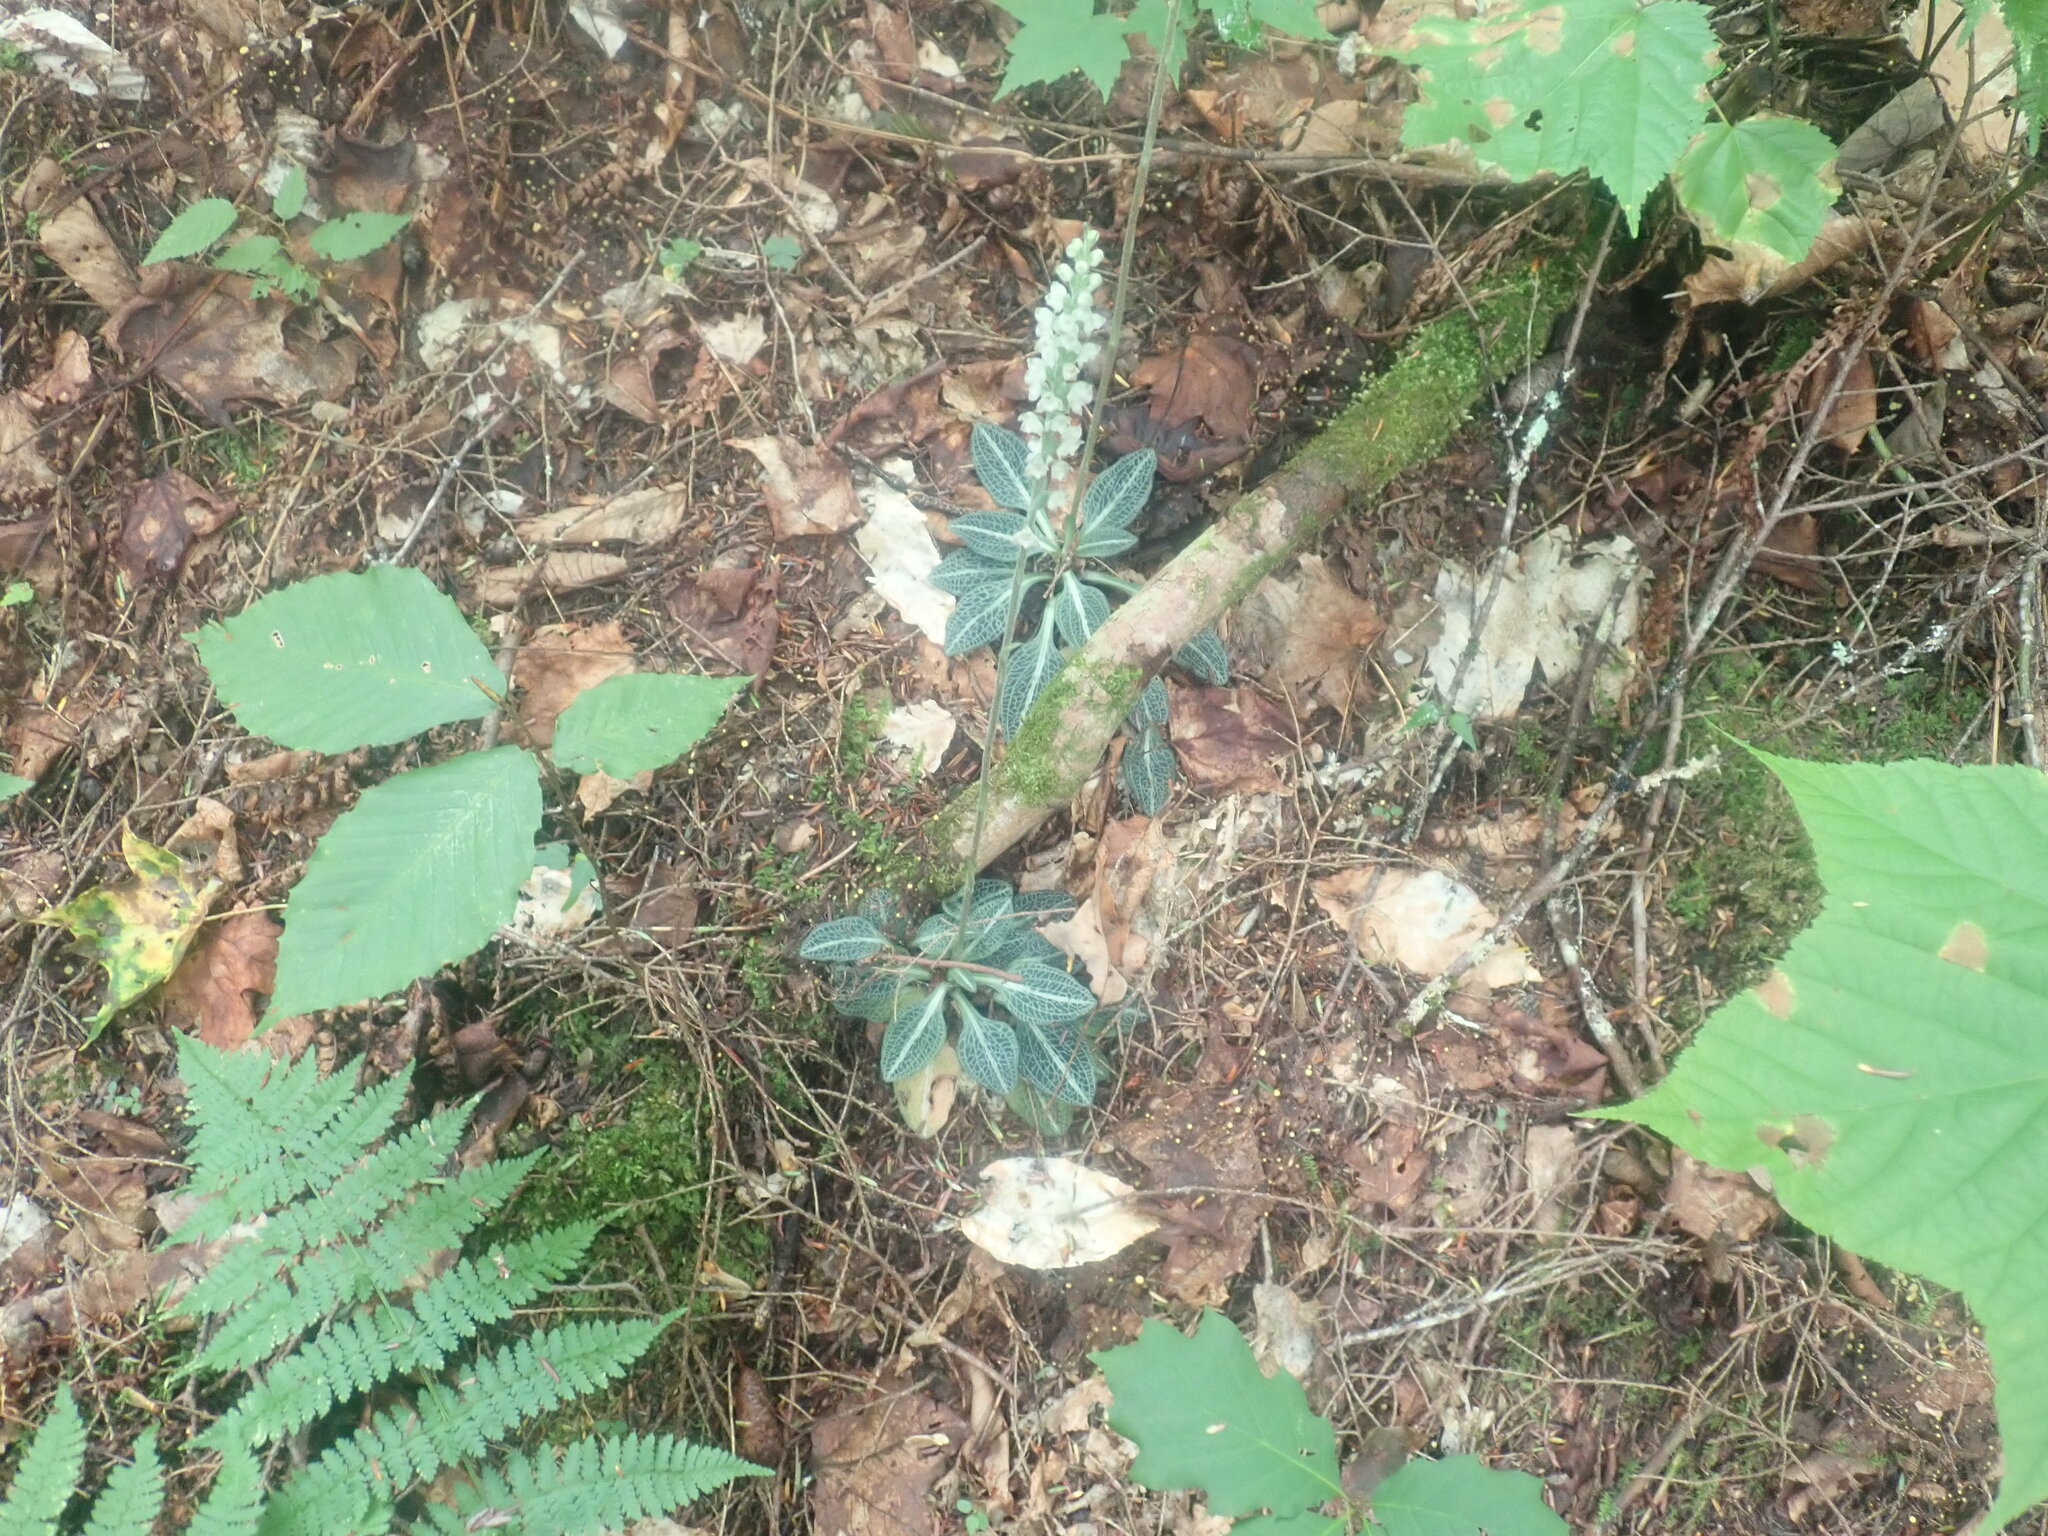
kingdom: Plantae
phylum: Tracheophyta
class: Liliopsida
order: Asparagales
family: Orchidaceae
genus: Goodyera
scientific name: Goodyera pubescens
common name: Downy rattlesnake-plantain
